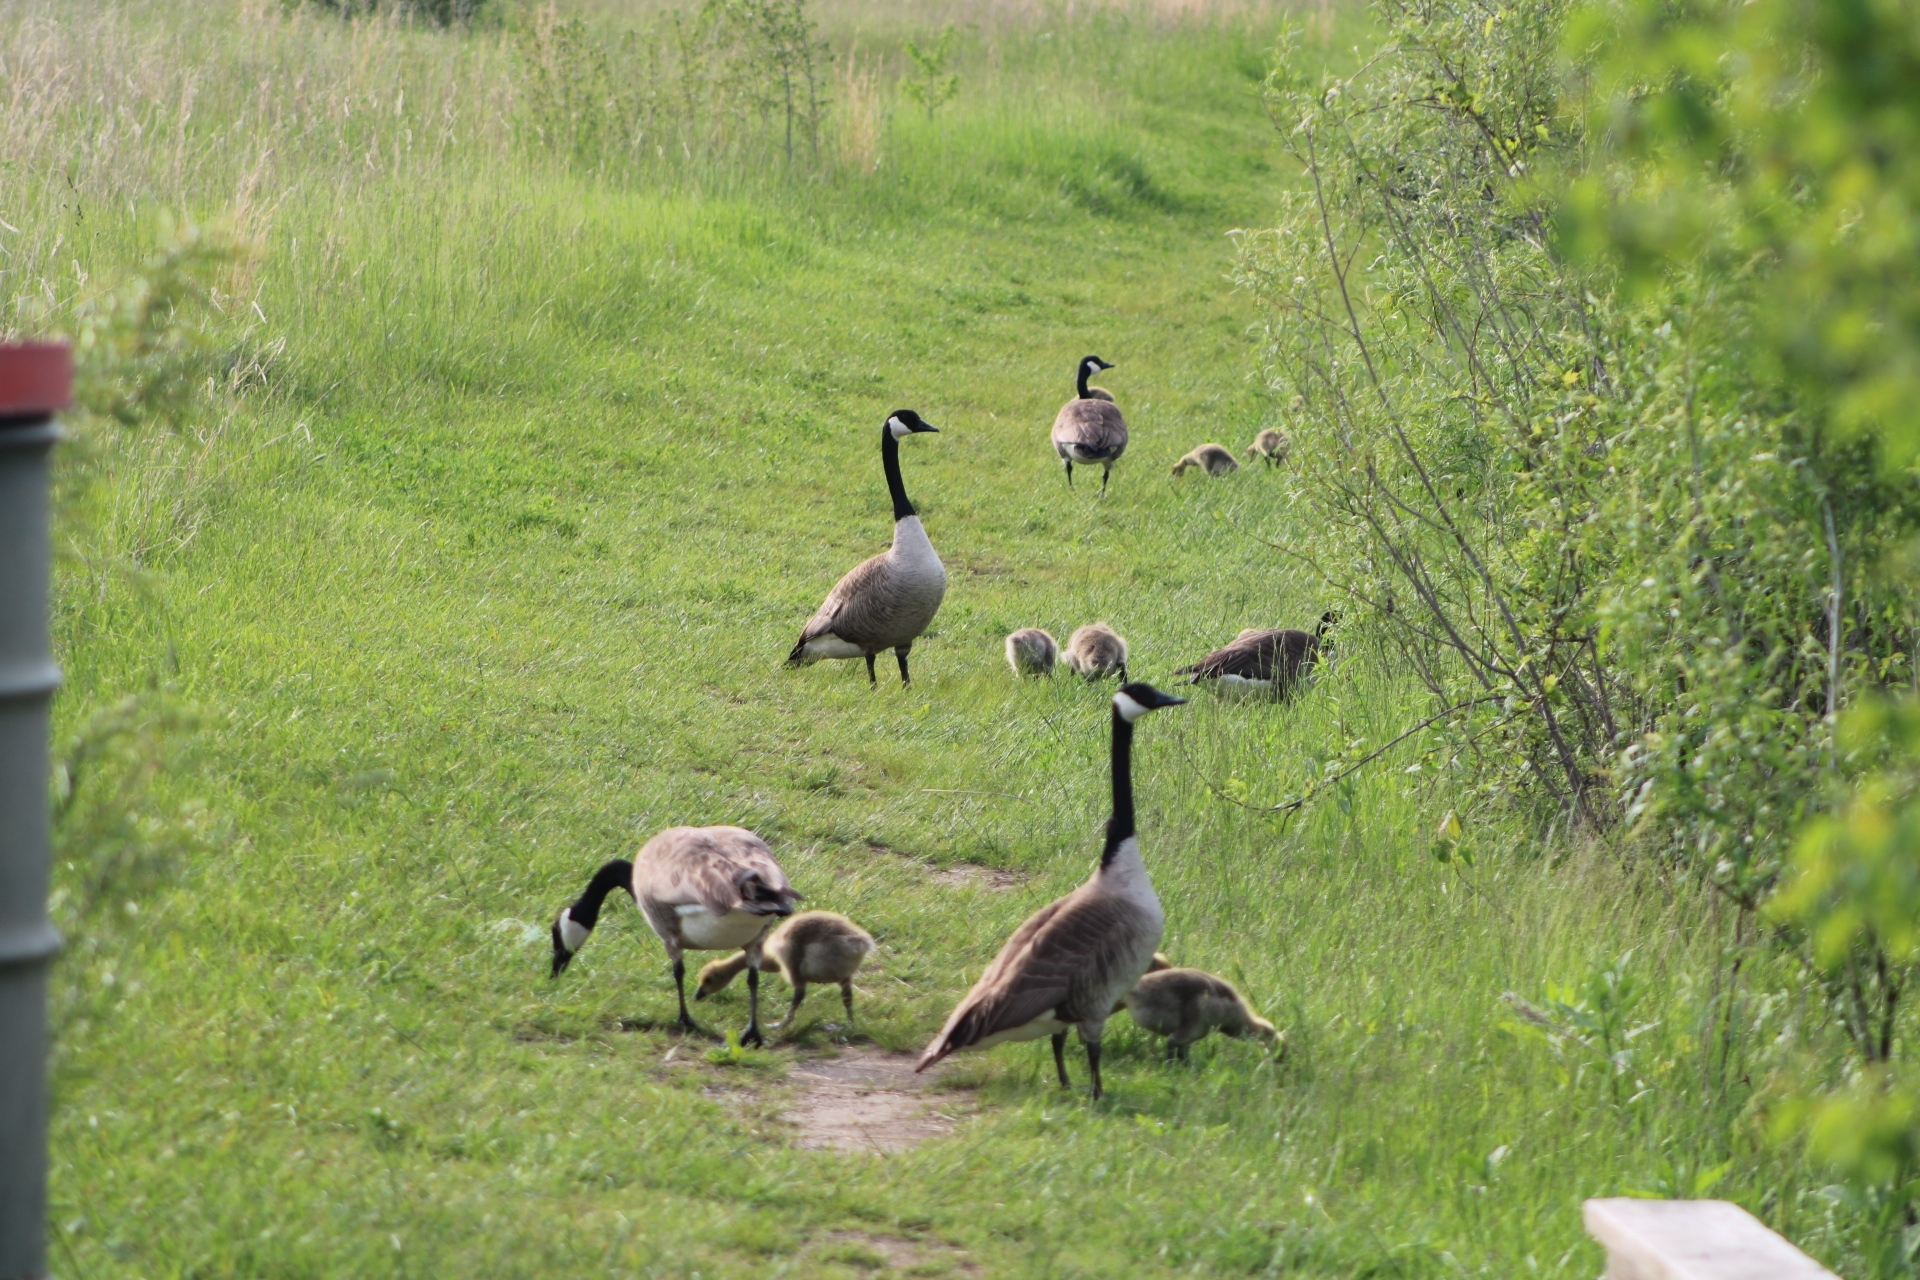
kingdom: Animalia
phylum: Chordata
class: Aves
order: Anseriformes
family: Anatidae
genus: Branta
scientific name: Branta canadensis
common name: Canada goose
